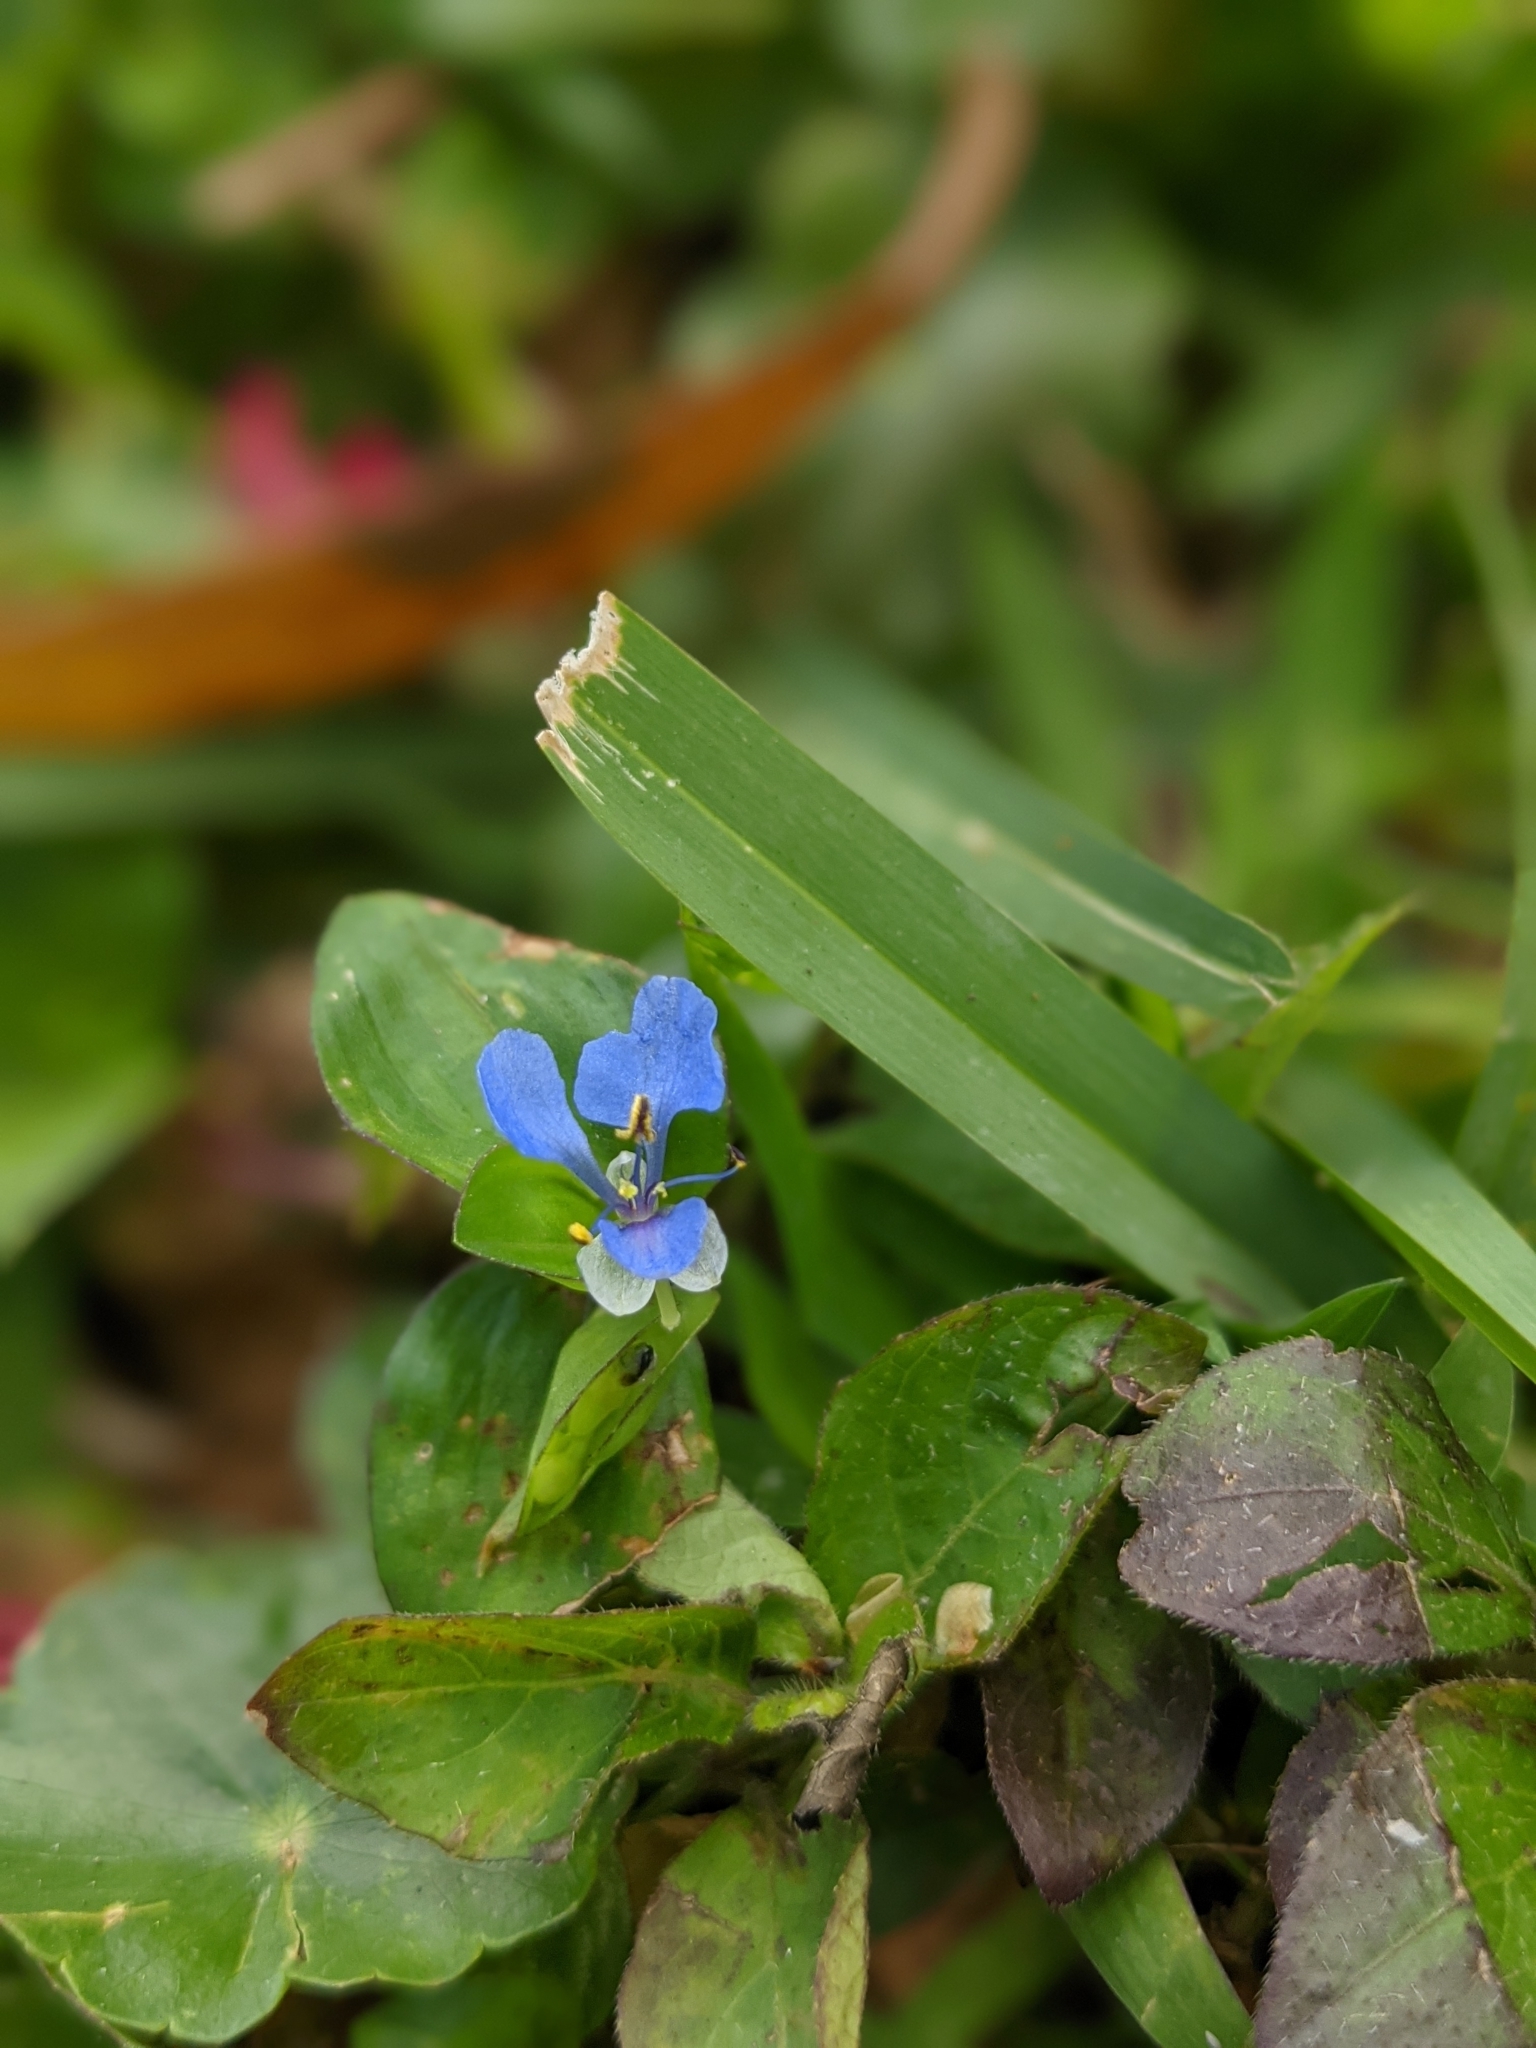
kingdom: Plantae
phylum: Tracheophyta
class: Liliopsida
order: Commelinales
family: Commelinaceae
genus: Commelina
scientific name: Commelina diffusa
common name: Climbing dayflower
